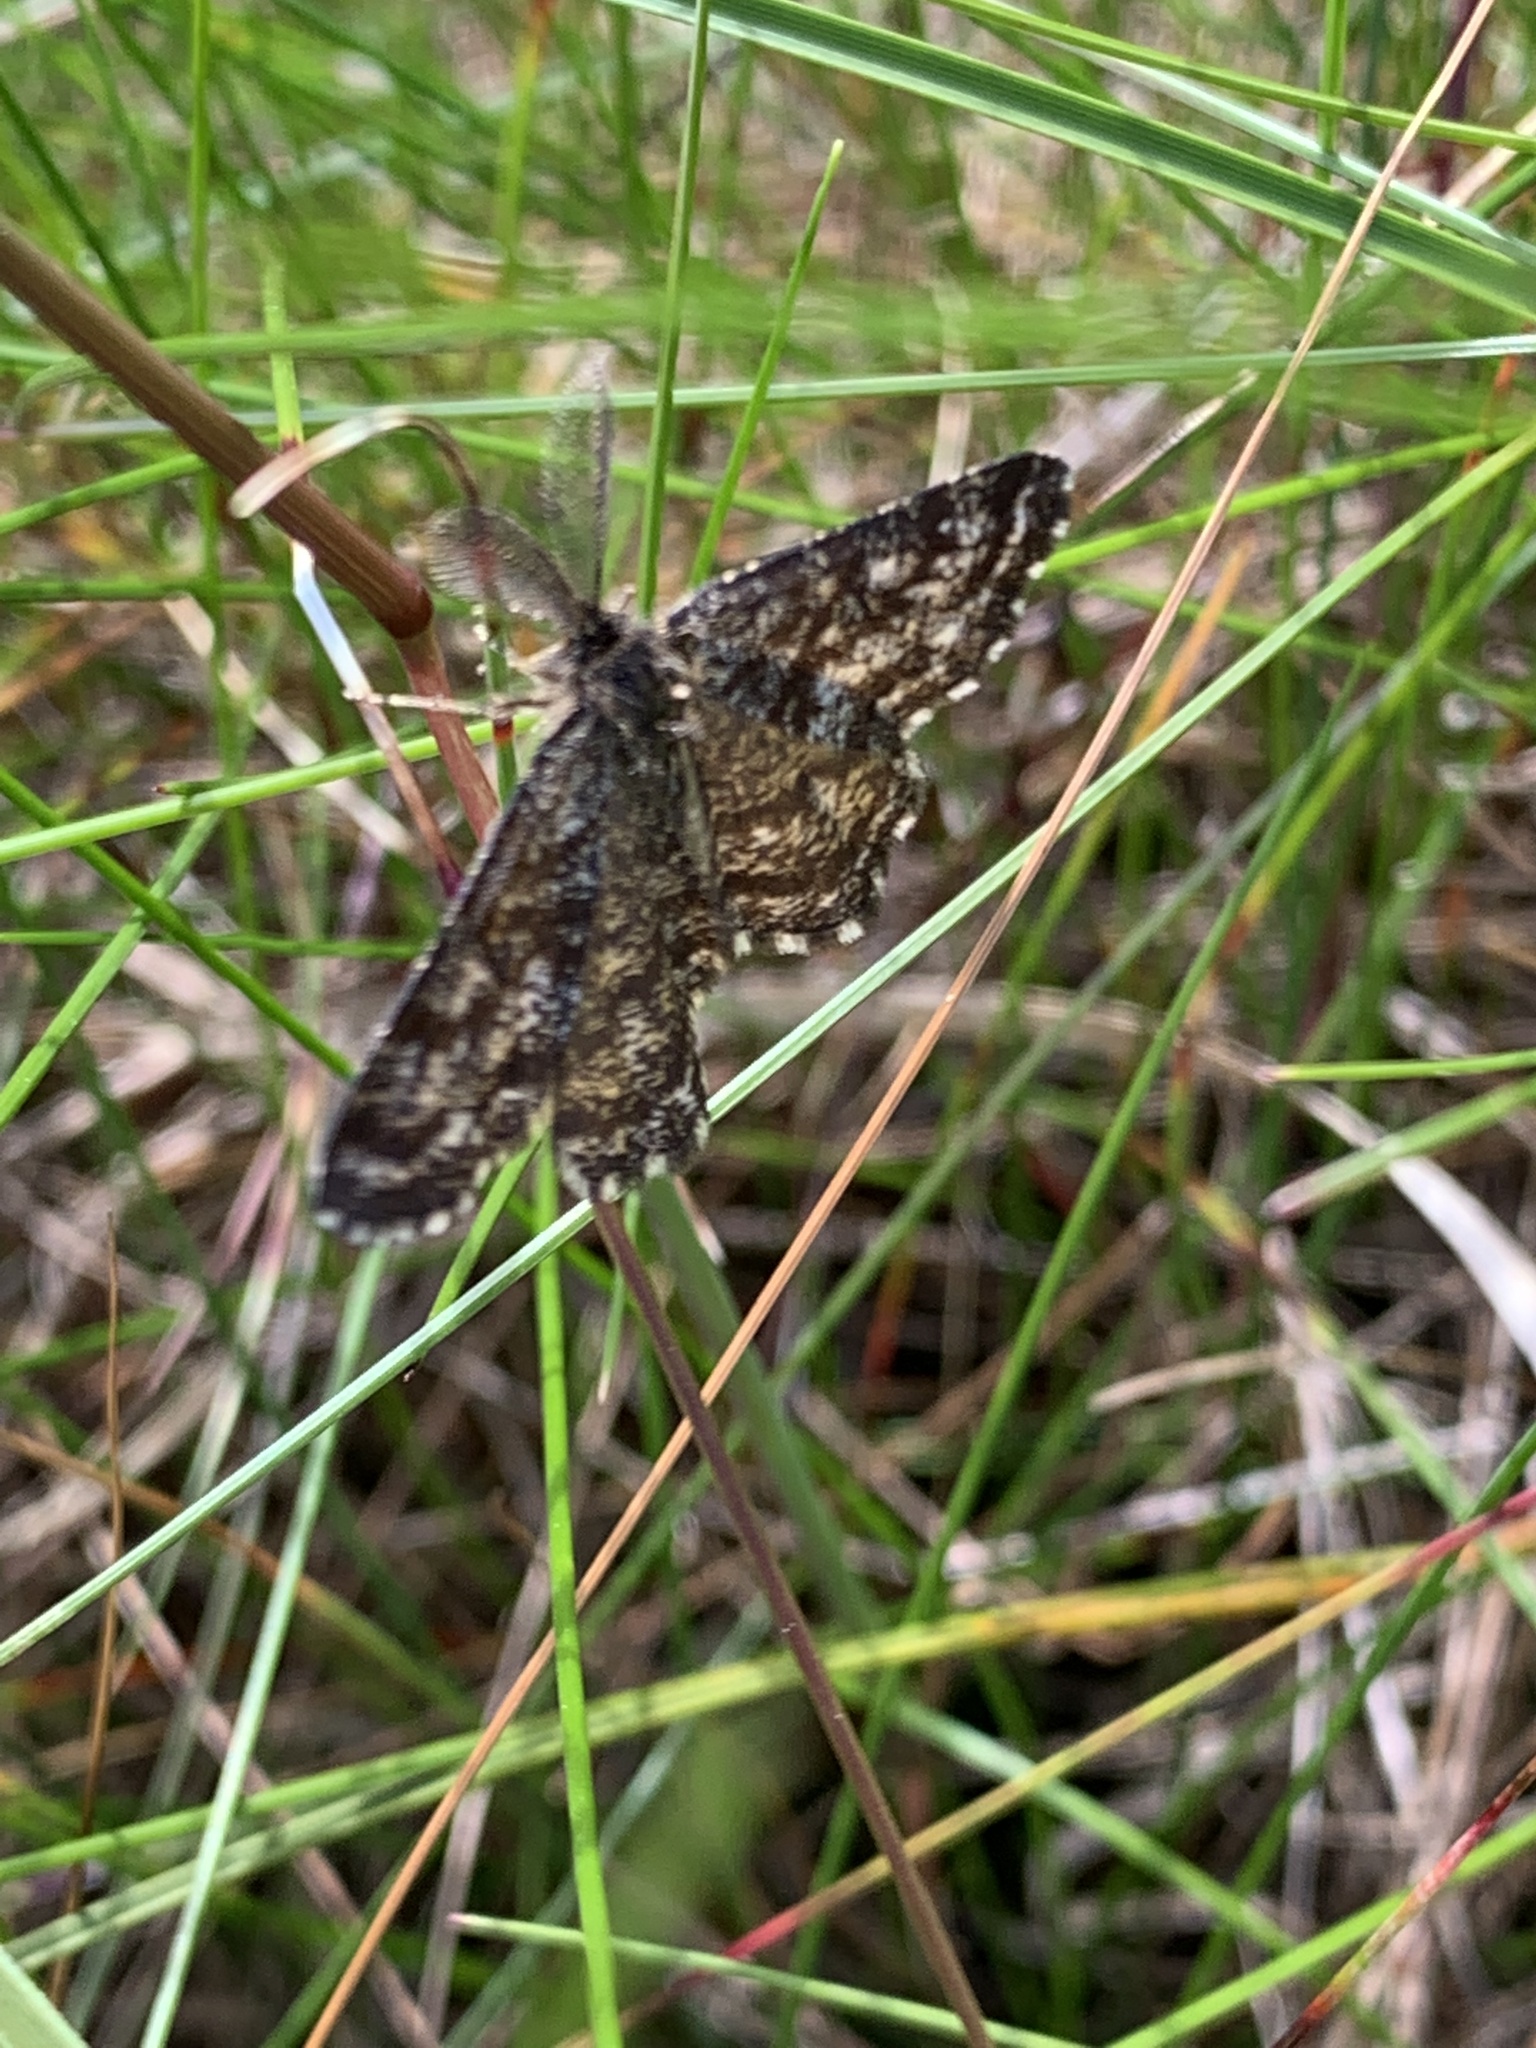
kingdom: Animalia
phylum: Arthropoda
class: Insecta
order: Lepidoptera
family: Geometridae
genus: Ematurga
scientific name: Ematurga atomaria
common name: Common heath
